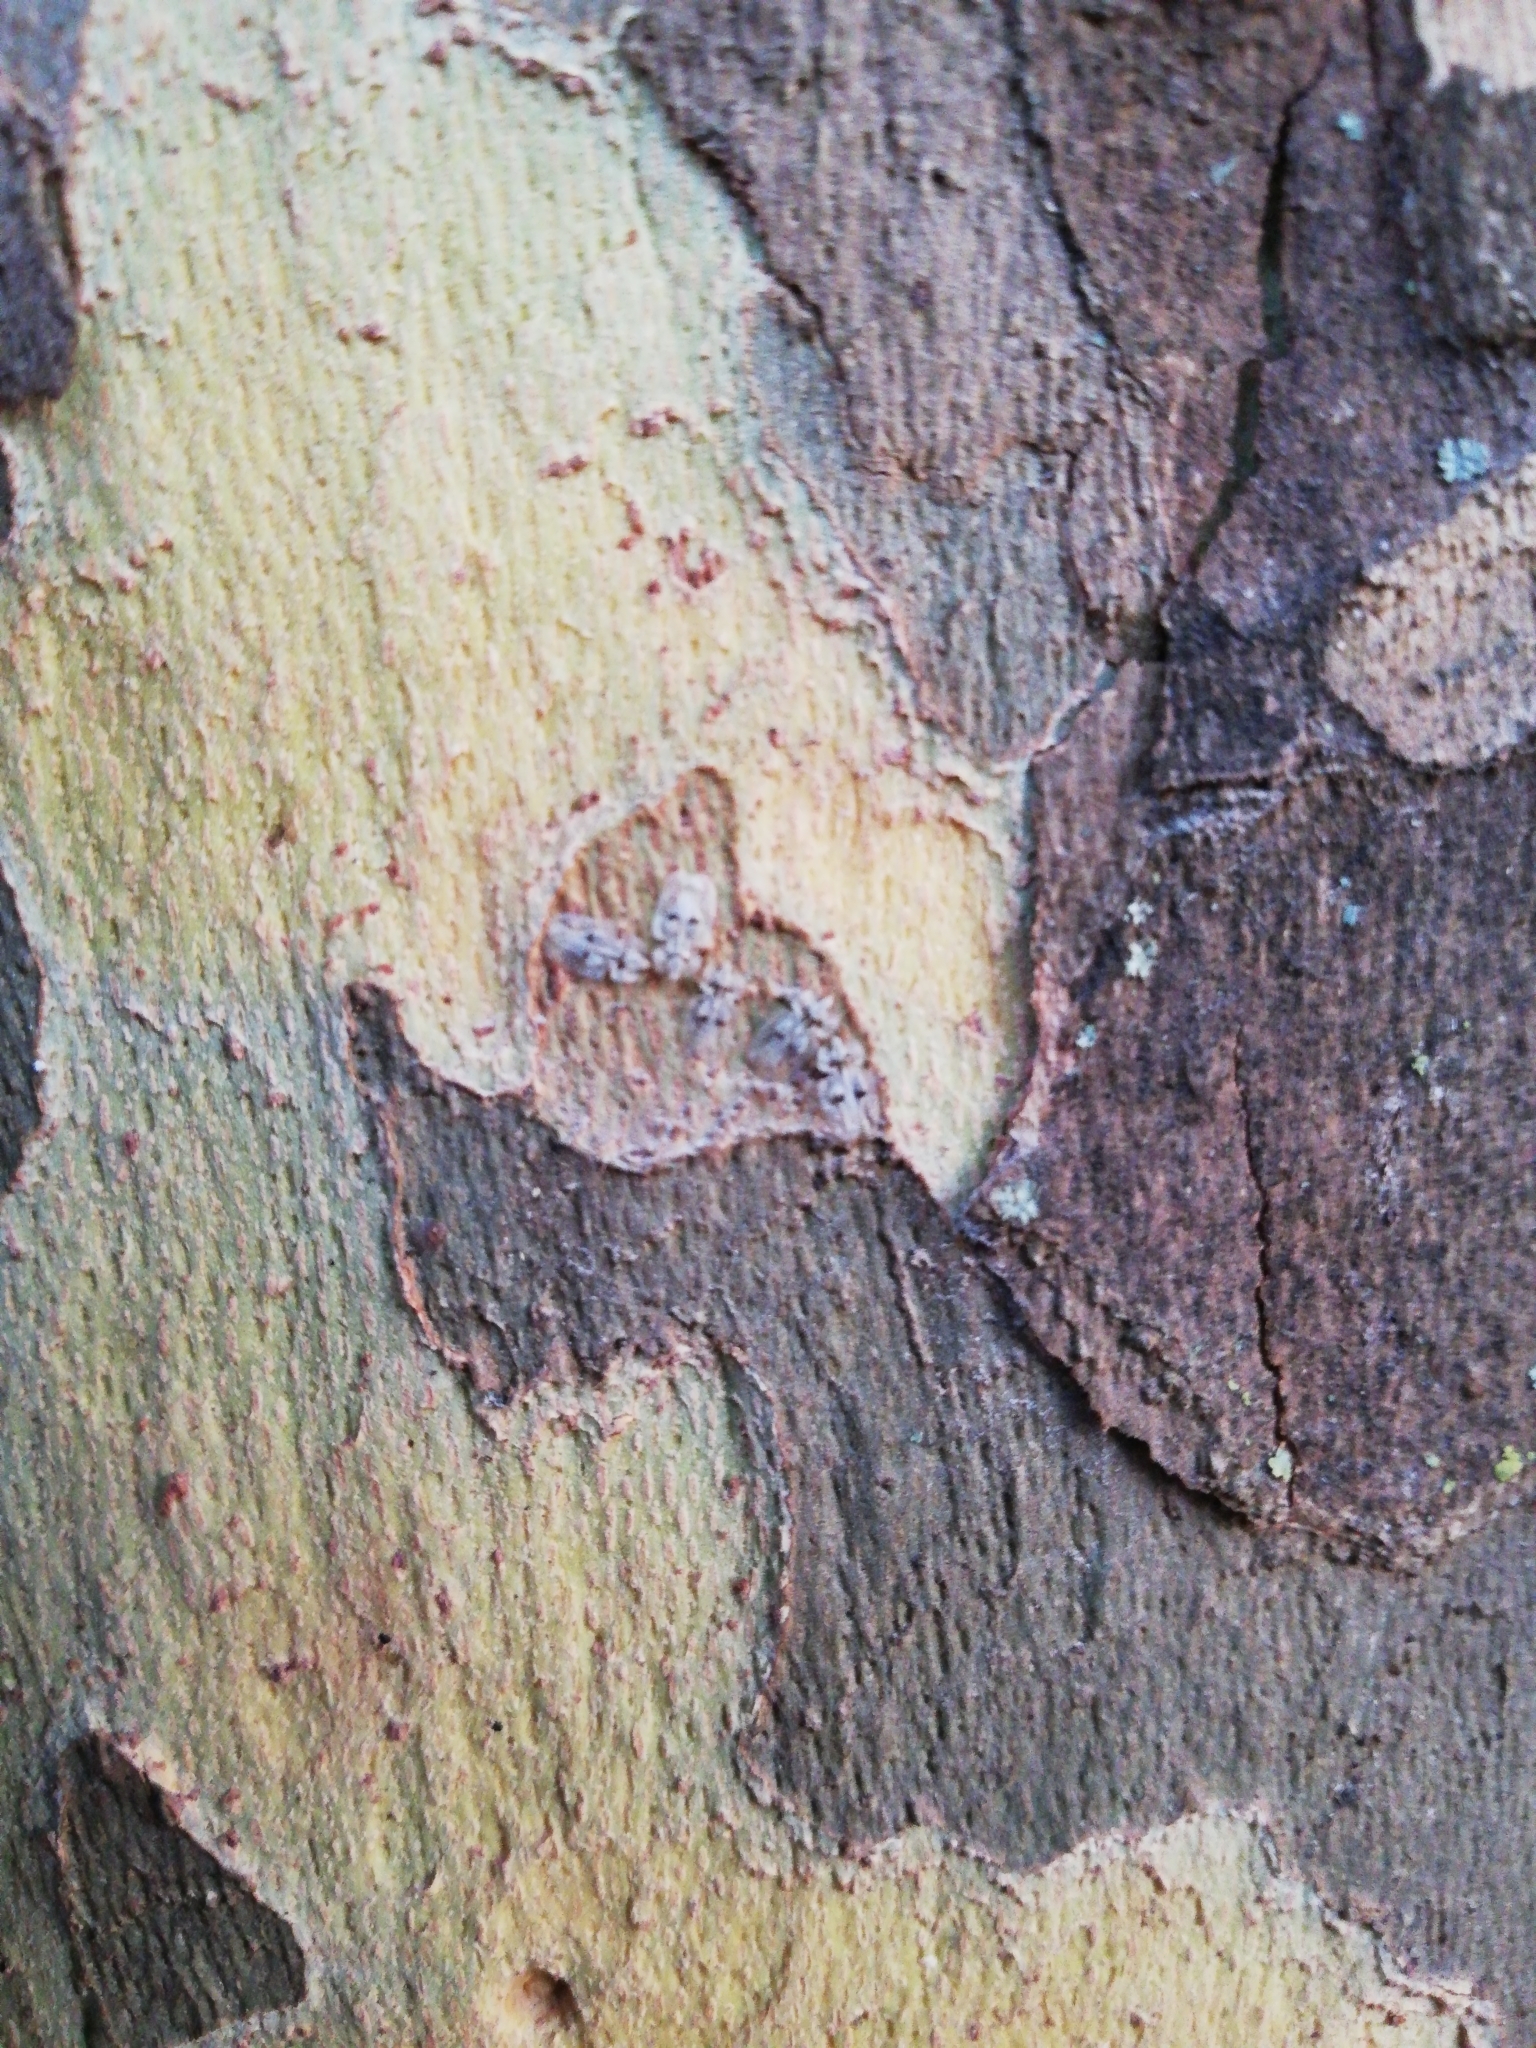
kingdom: Animalia
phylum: Arthropoda
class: Insecta
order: Hemiptera
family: Tingidae
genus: Corythucha
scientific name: Corythucha ciliata
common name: Sycamore lace bug
